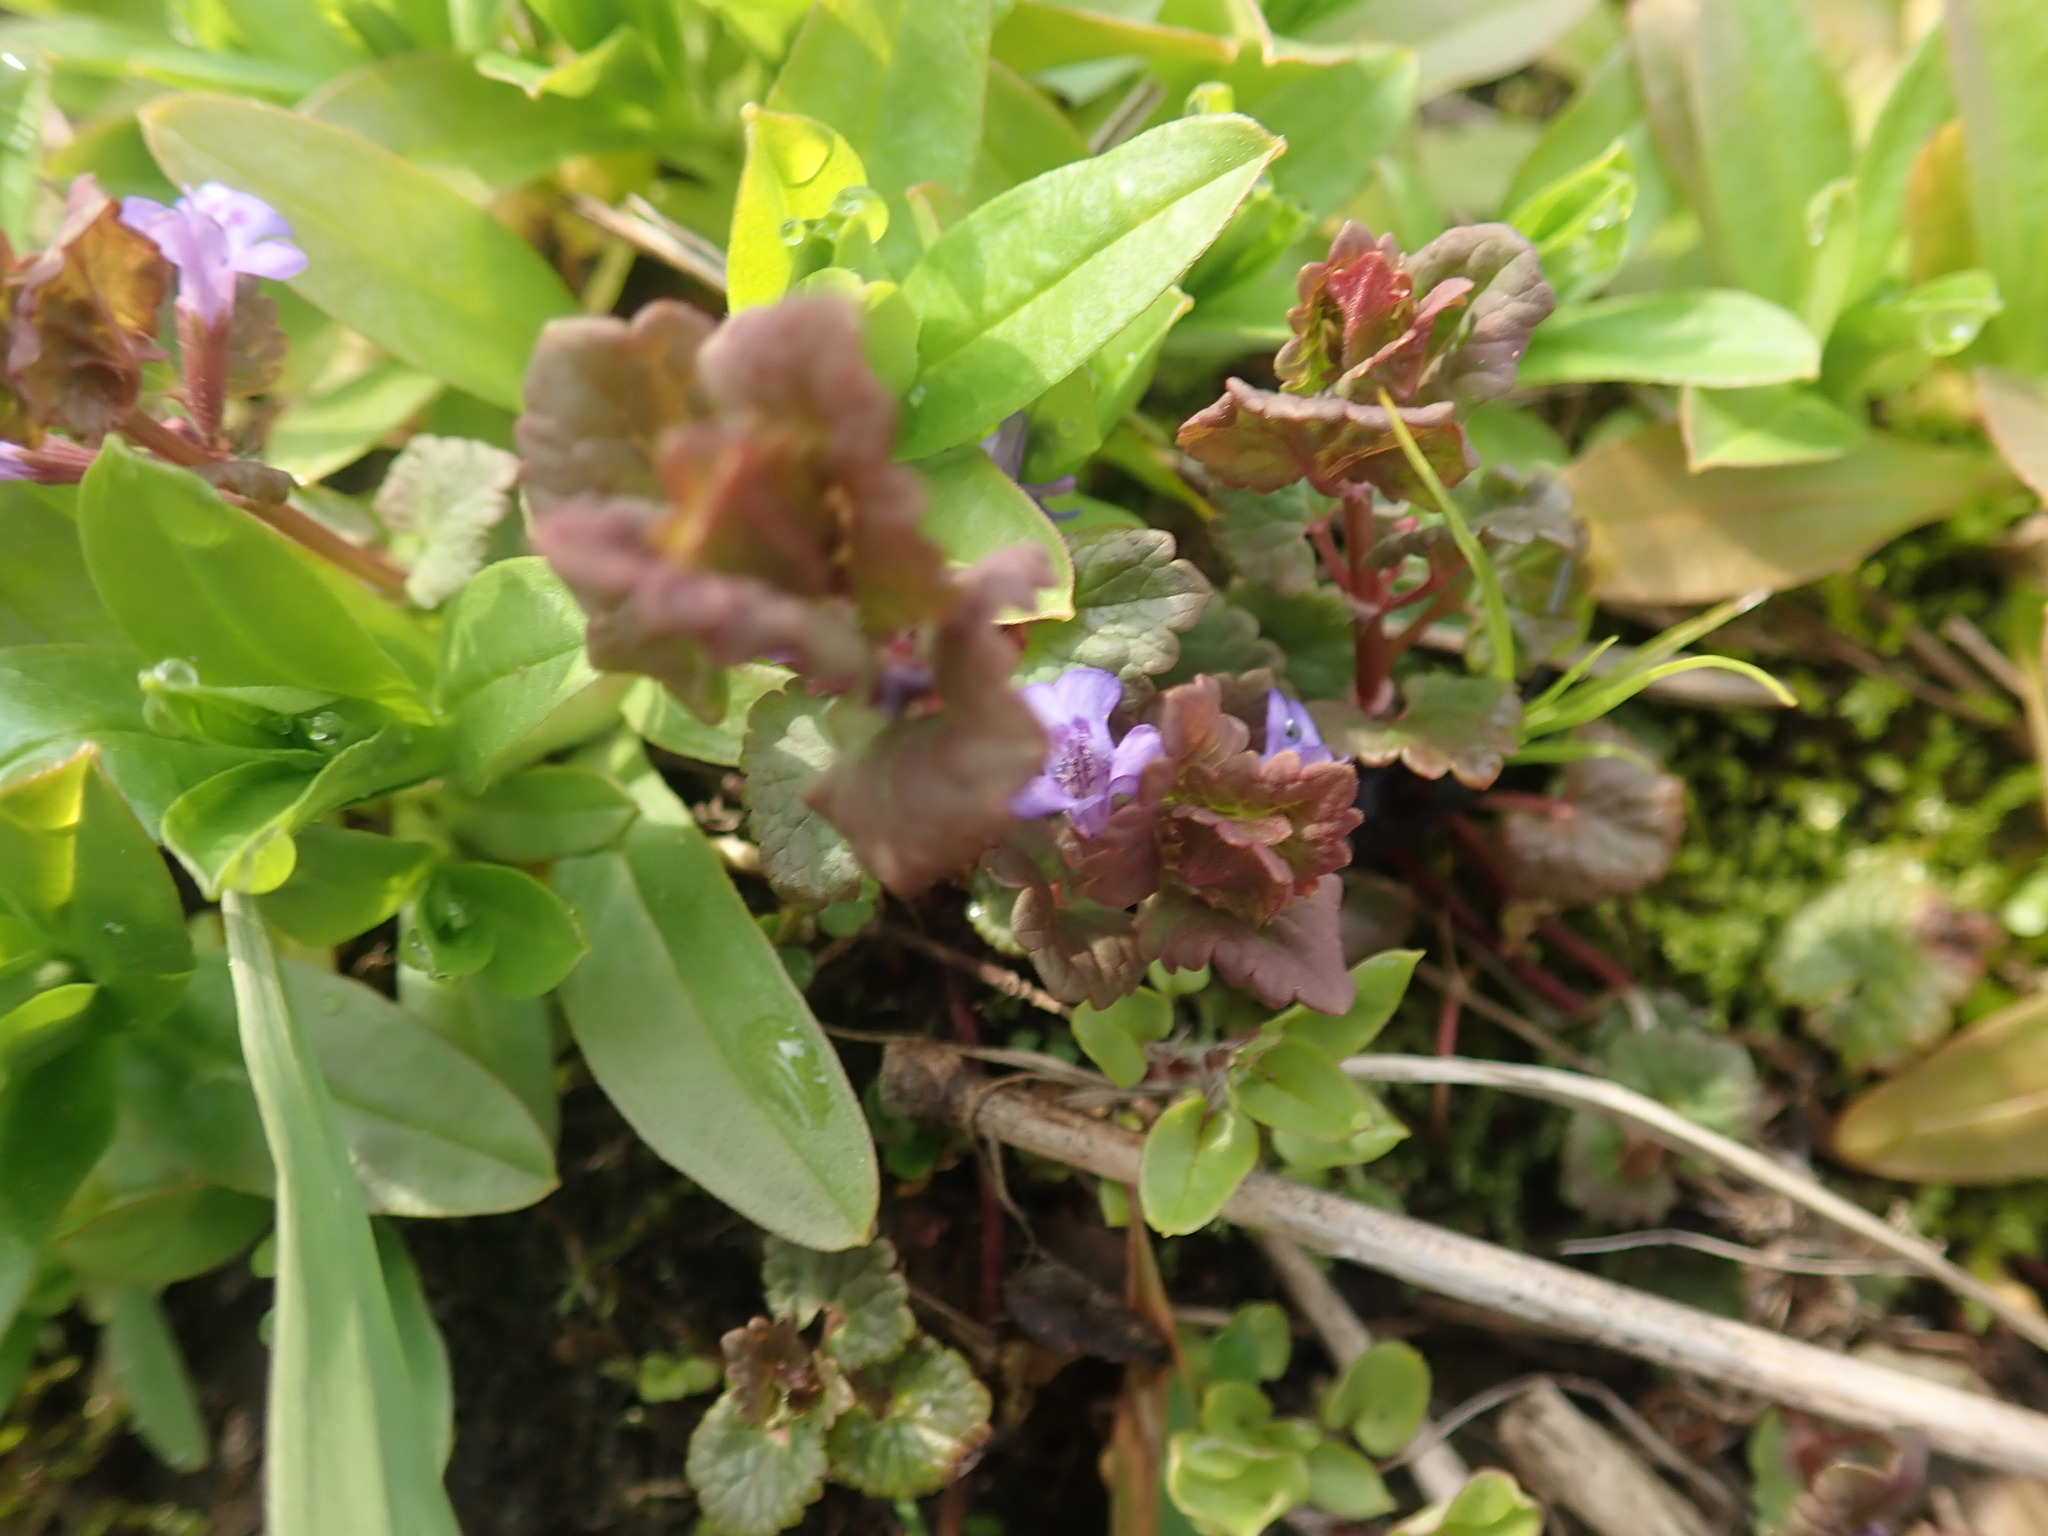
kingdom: Plantae
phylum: Tracheophyta
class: Magnoliopsida
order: Lamiales
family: Lamiaceae
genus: Glechoma
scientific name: Glechoma hederacea
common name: Ground ivy
